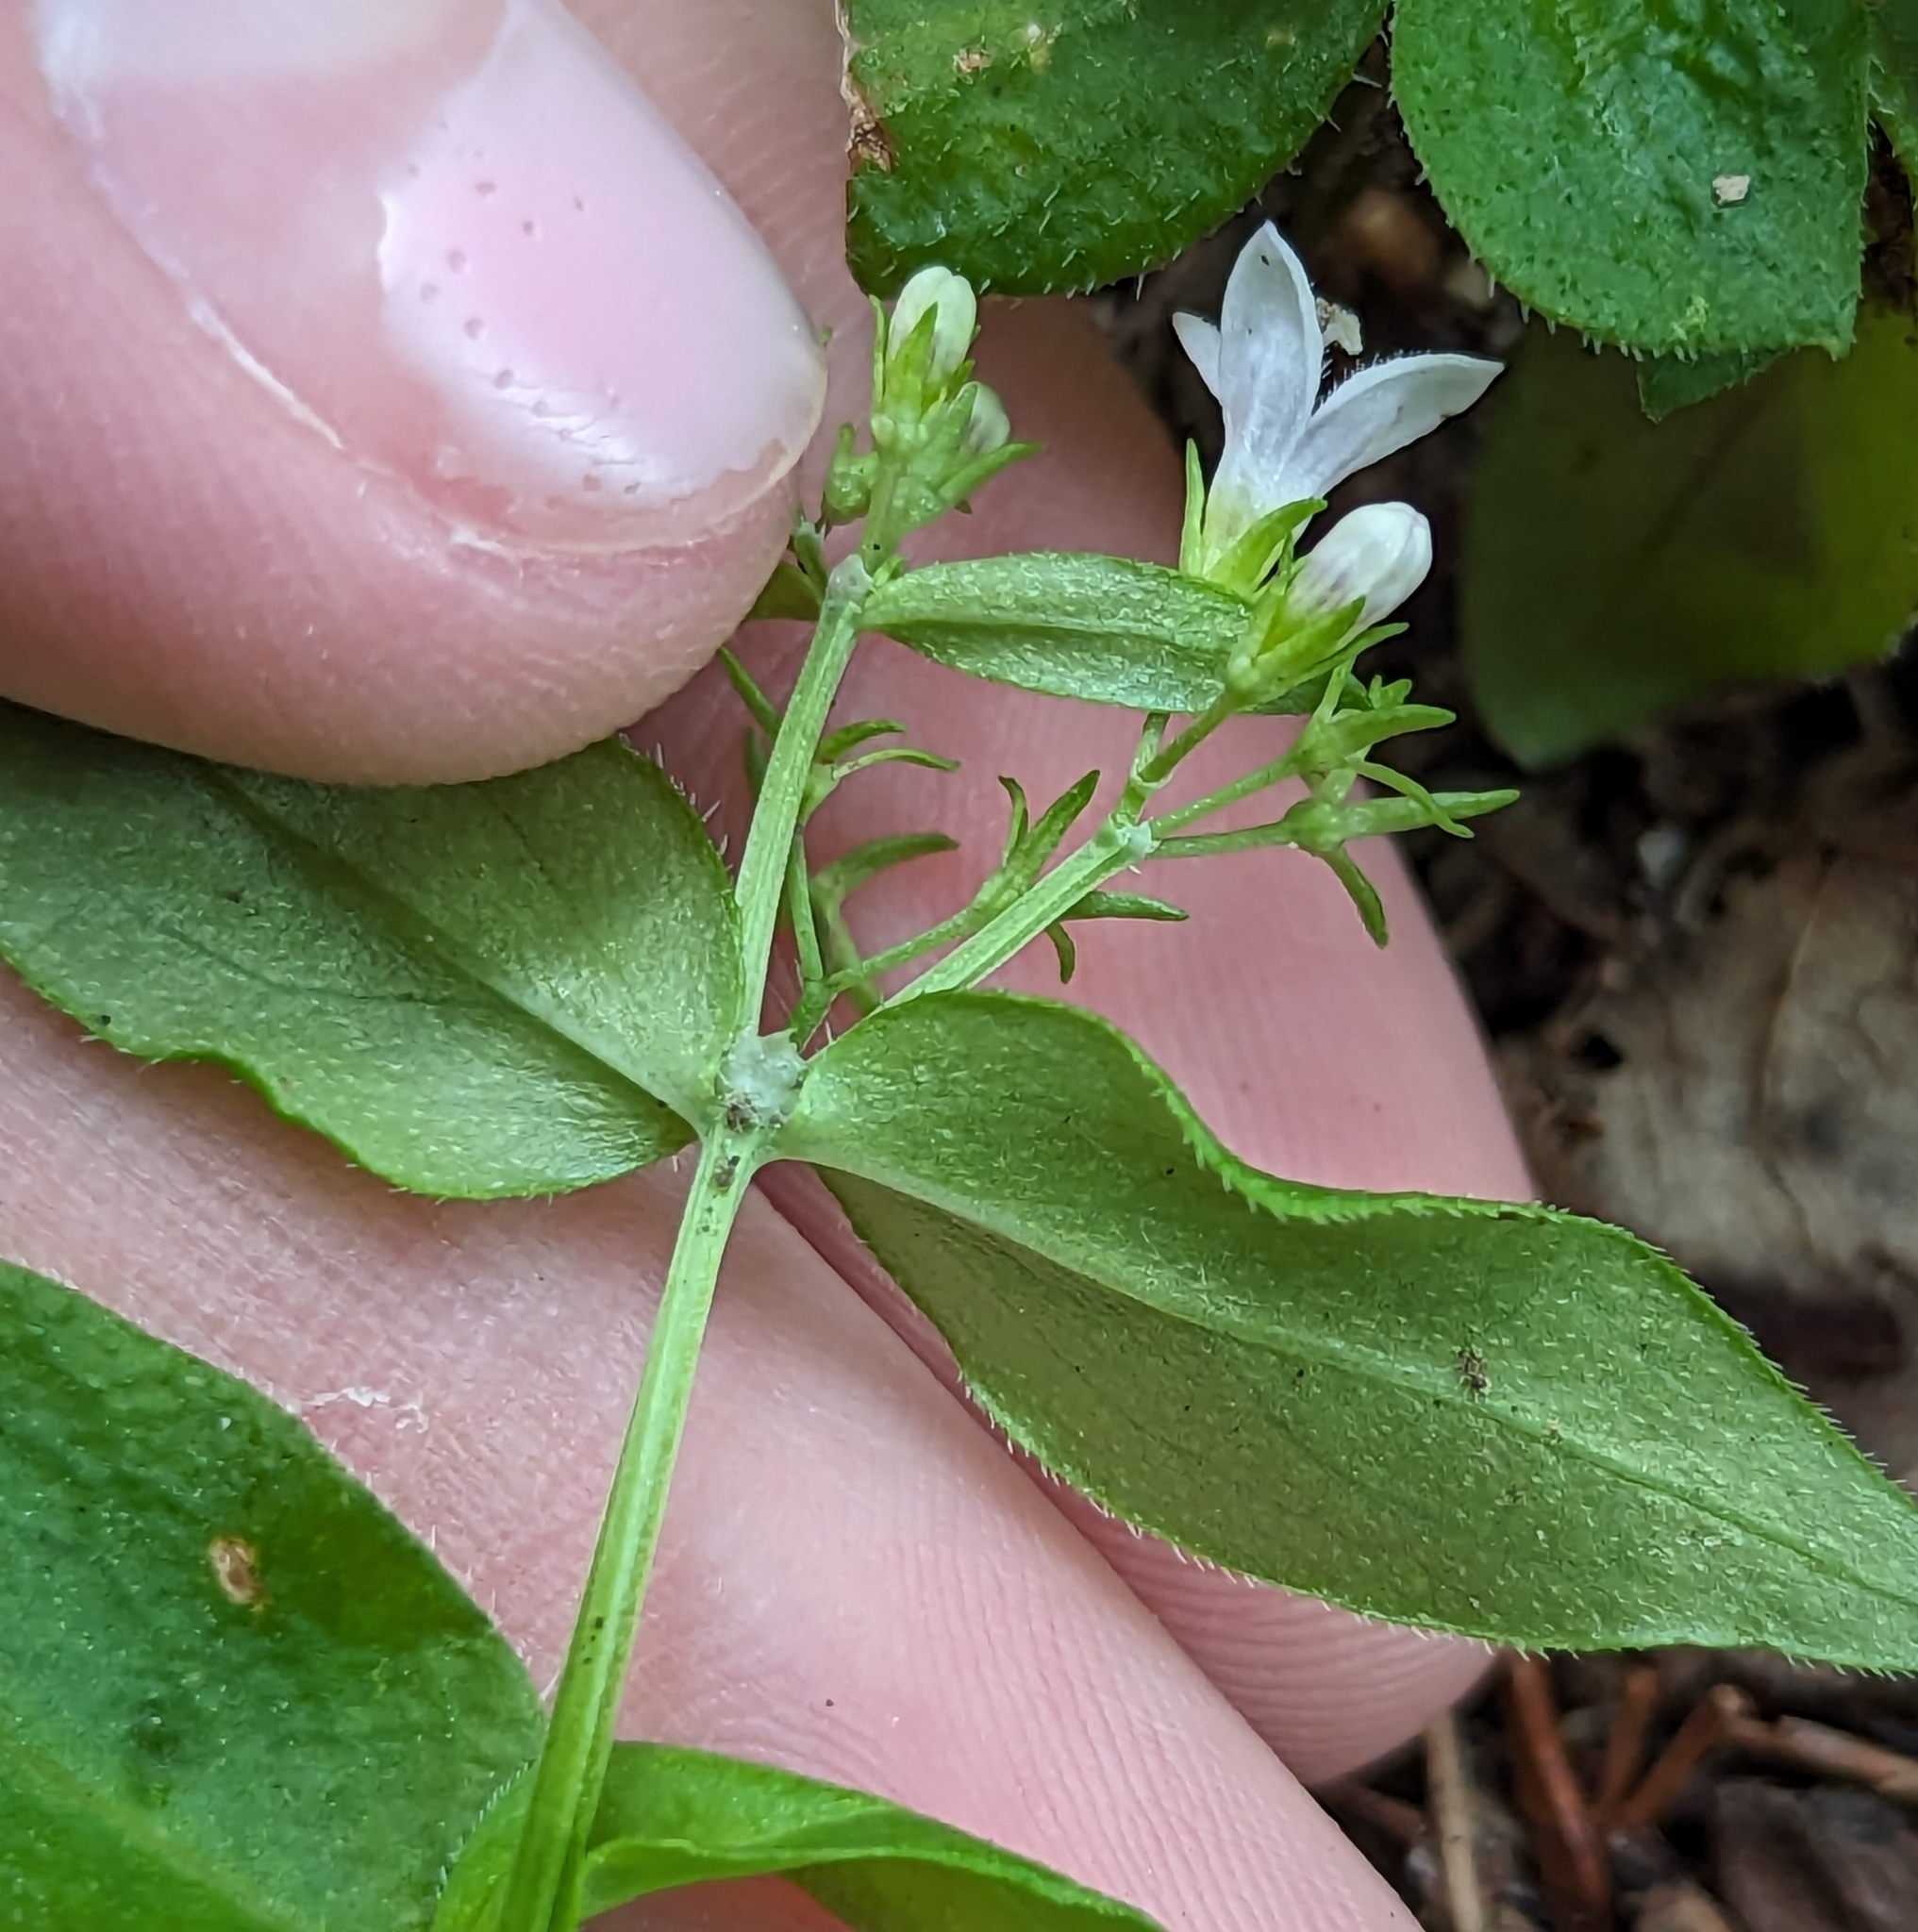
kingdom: Plantae
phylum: Tracheophyta
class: Magnoliopsida
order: Gentianales
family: Rubiaceae
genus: Houstonia
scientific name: Houstonia purpurea
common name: Summer bluet
